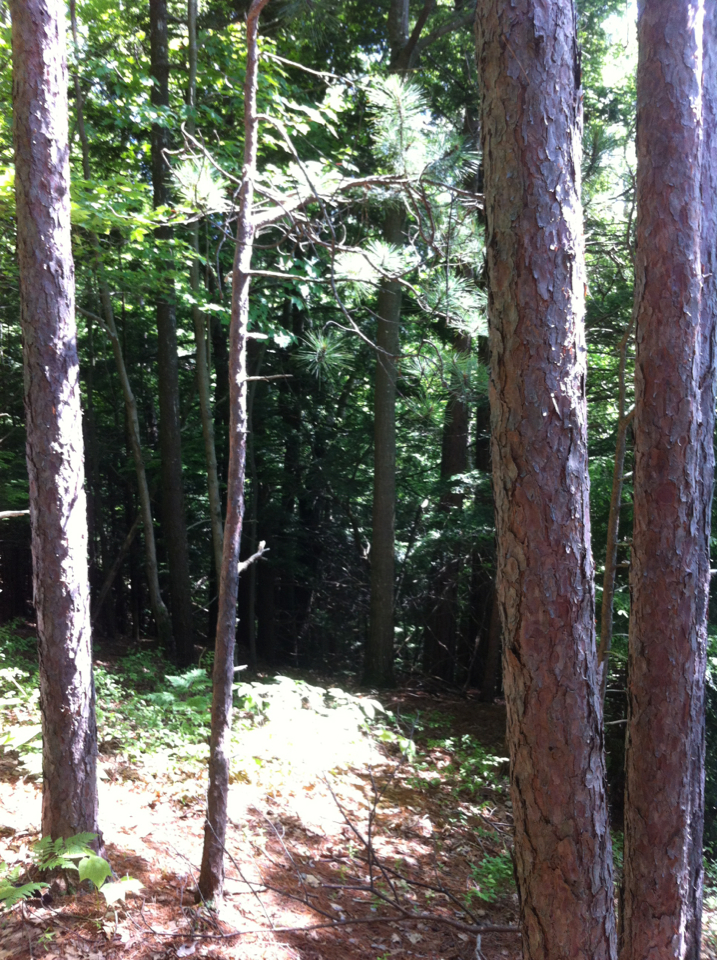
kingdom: Plantae
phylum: Tracheophyta
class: Pinopsida
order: Pinales
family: Pinaceae
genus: Pinus
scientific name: Pinus resinosa
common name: Norway pine
